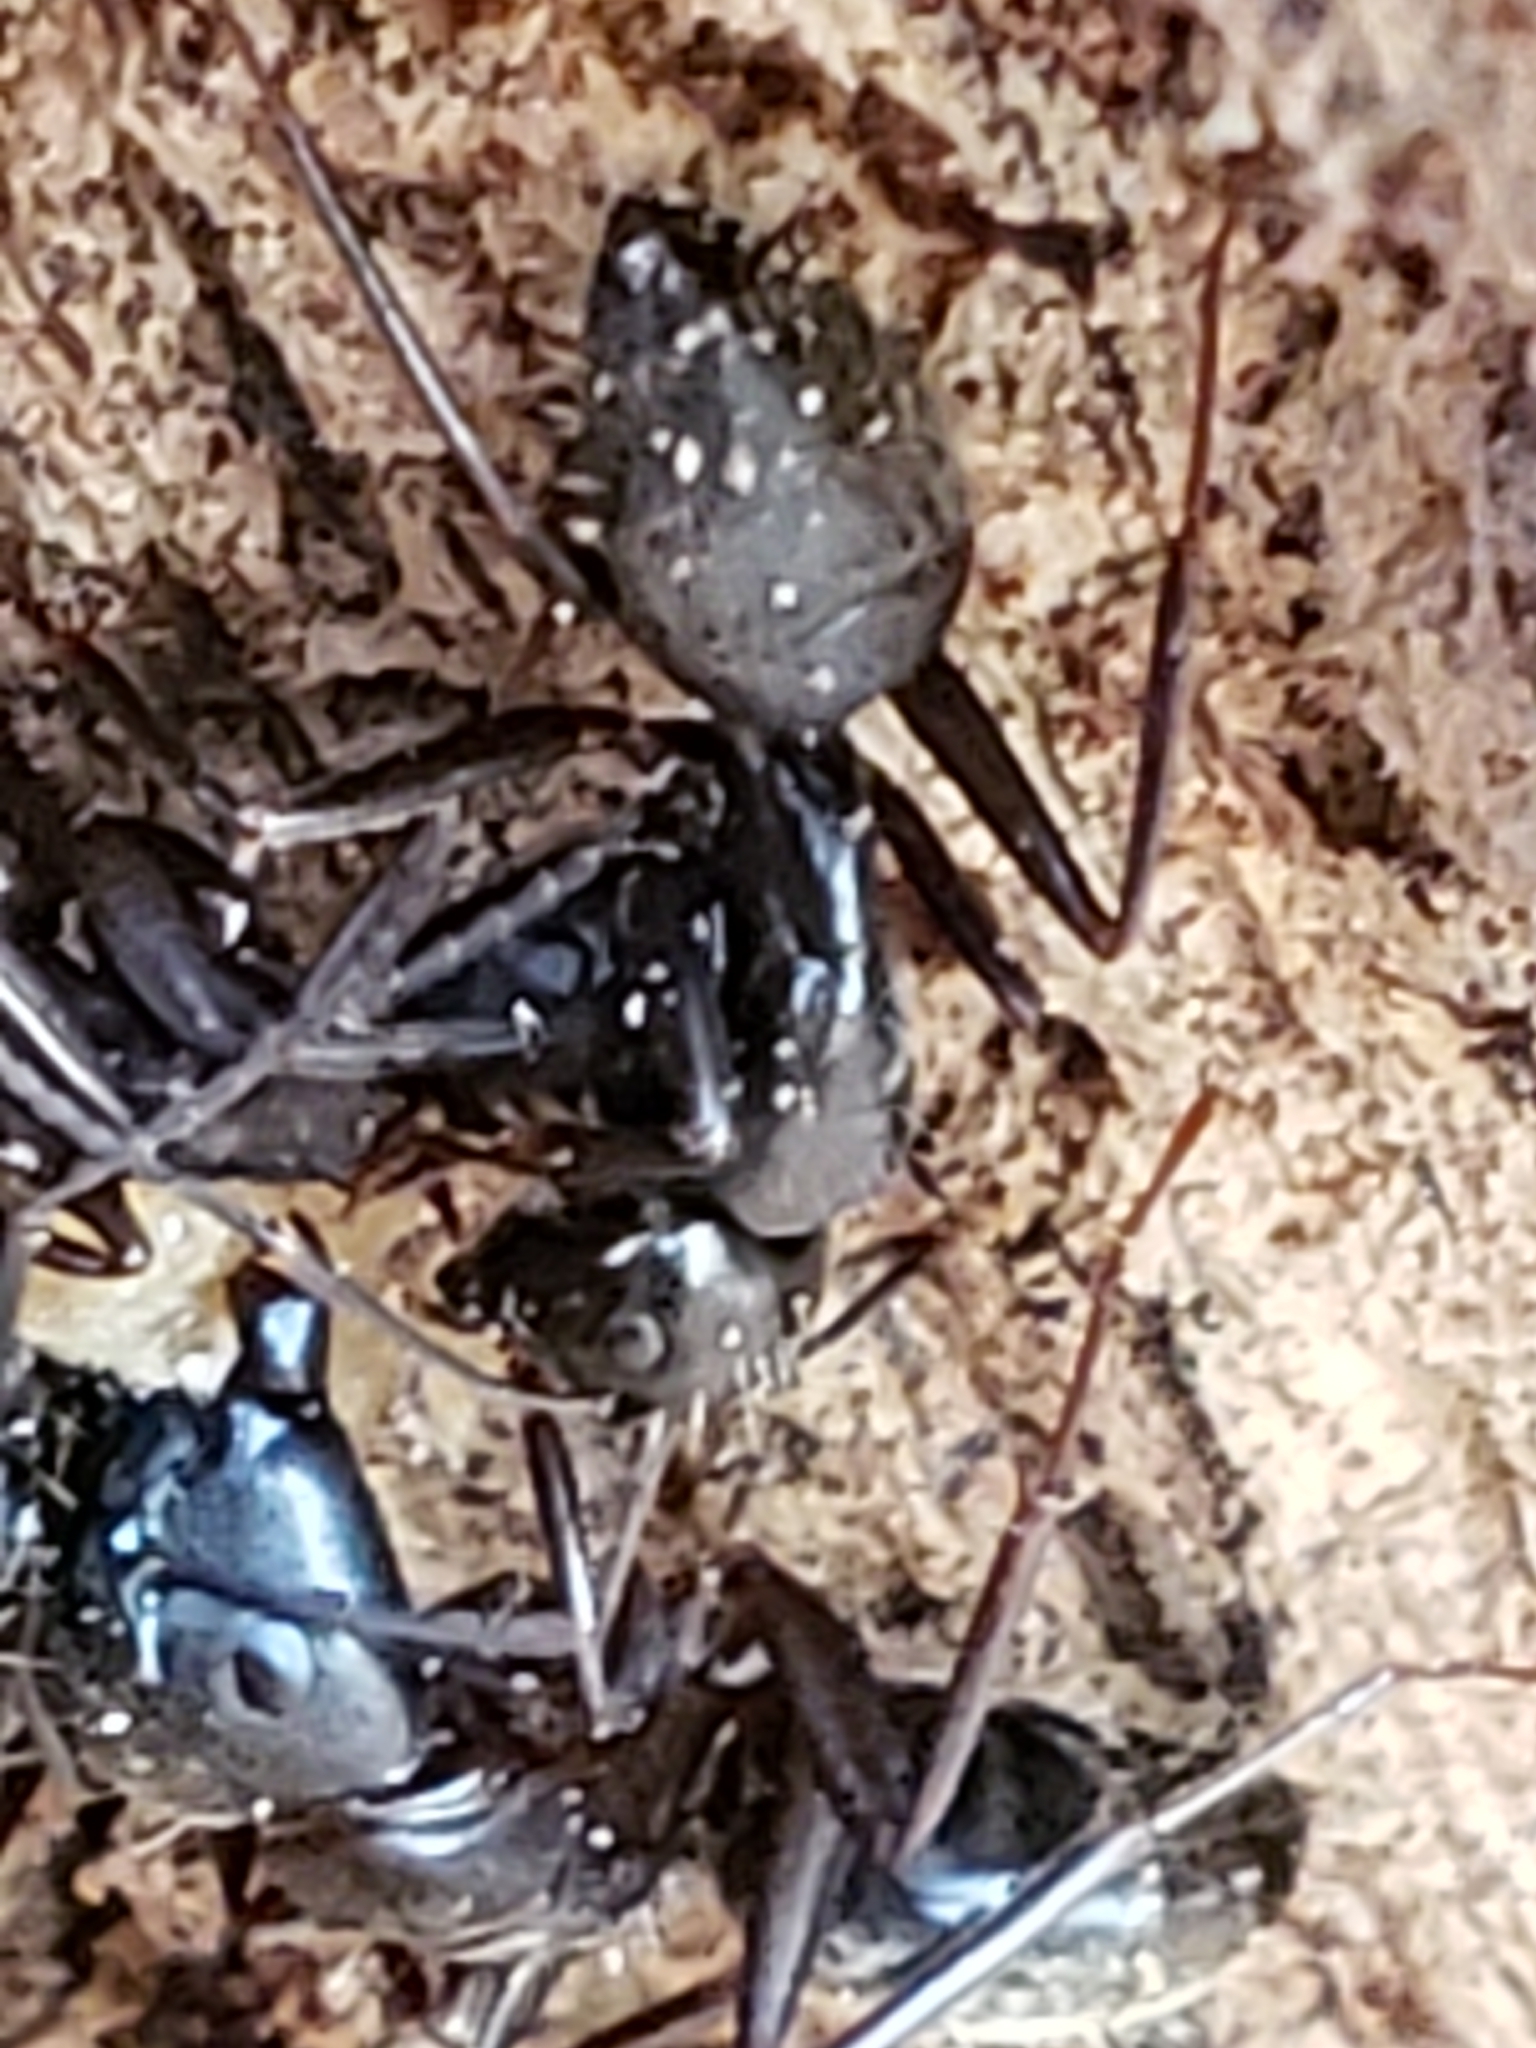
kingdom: Animalia
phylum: Arthropoda
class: Insecta
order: Hymenoptera
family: Formicidae
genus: Camponotus
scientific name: Camponotus pennsylvanicus
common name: Black carpenter ant
